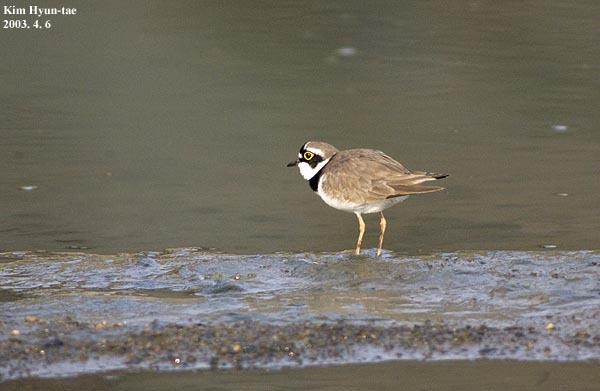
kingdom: Animalia
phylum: Chordata
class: Aves
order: Charadriiformes
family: Charadriidae
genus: Charadrius
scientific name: Charadrius dubius
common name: Little ringed plover
